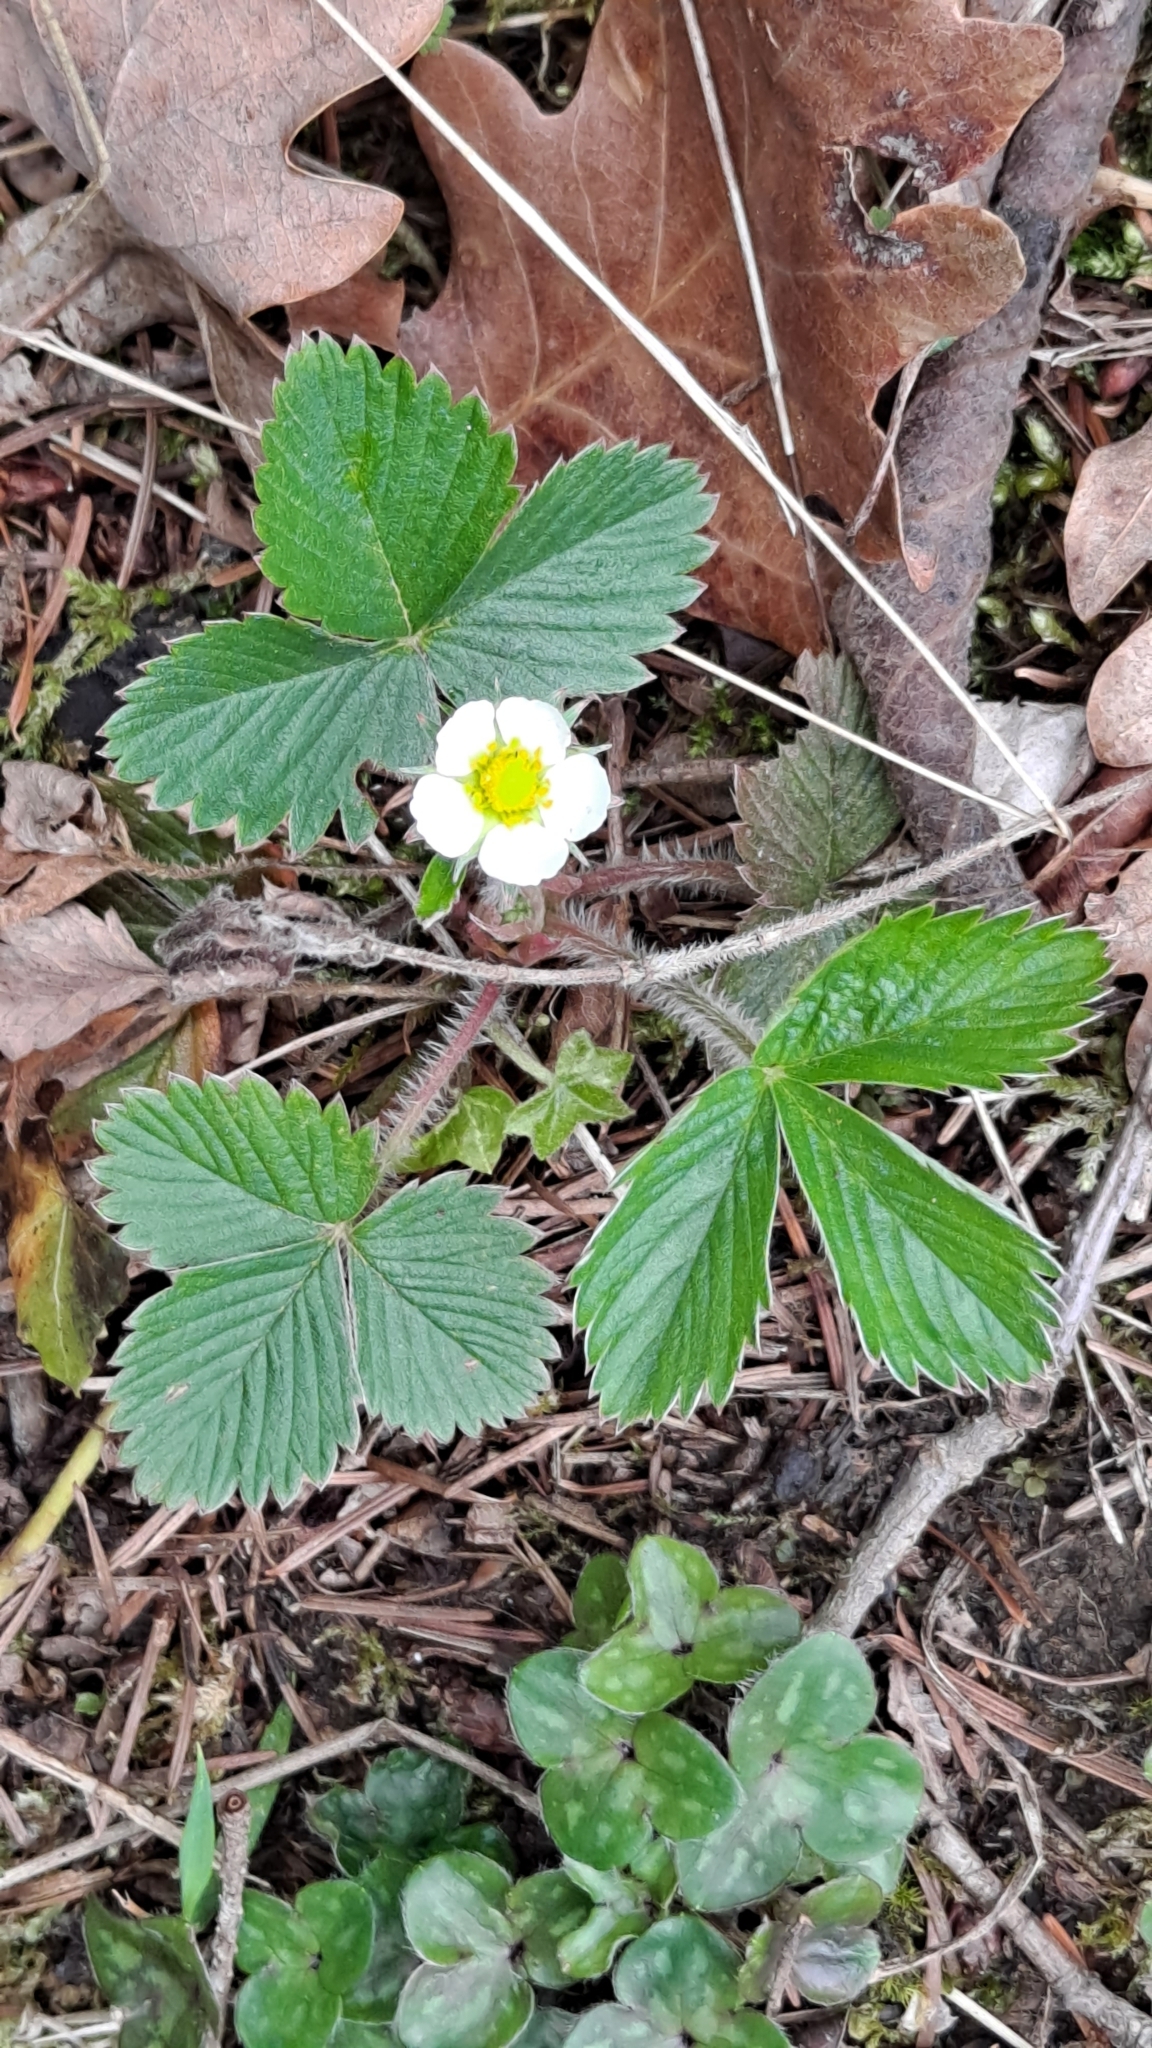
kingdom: Plantae
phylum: Tracheophyta
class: Magnoliopsida
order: Rosales
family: Rosaceae
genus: Fragaria
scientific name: Fragaria vesca
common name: Wild strawberry
